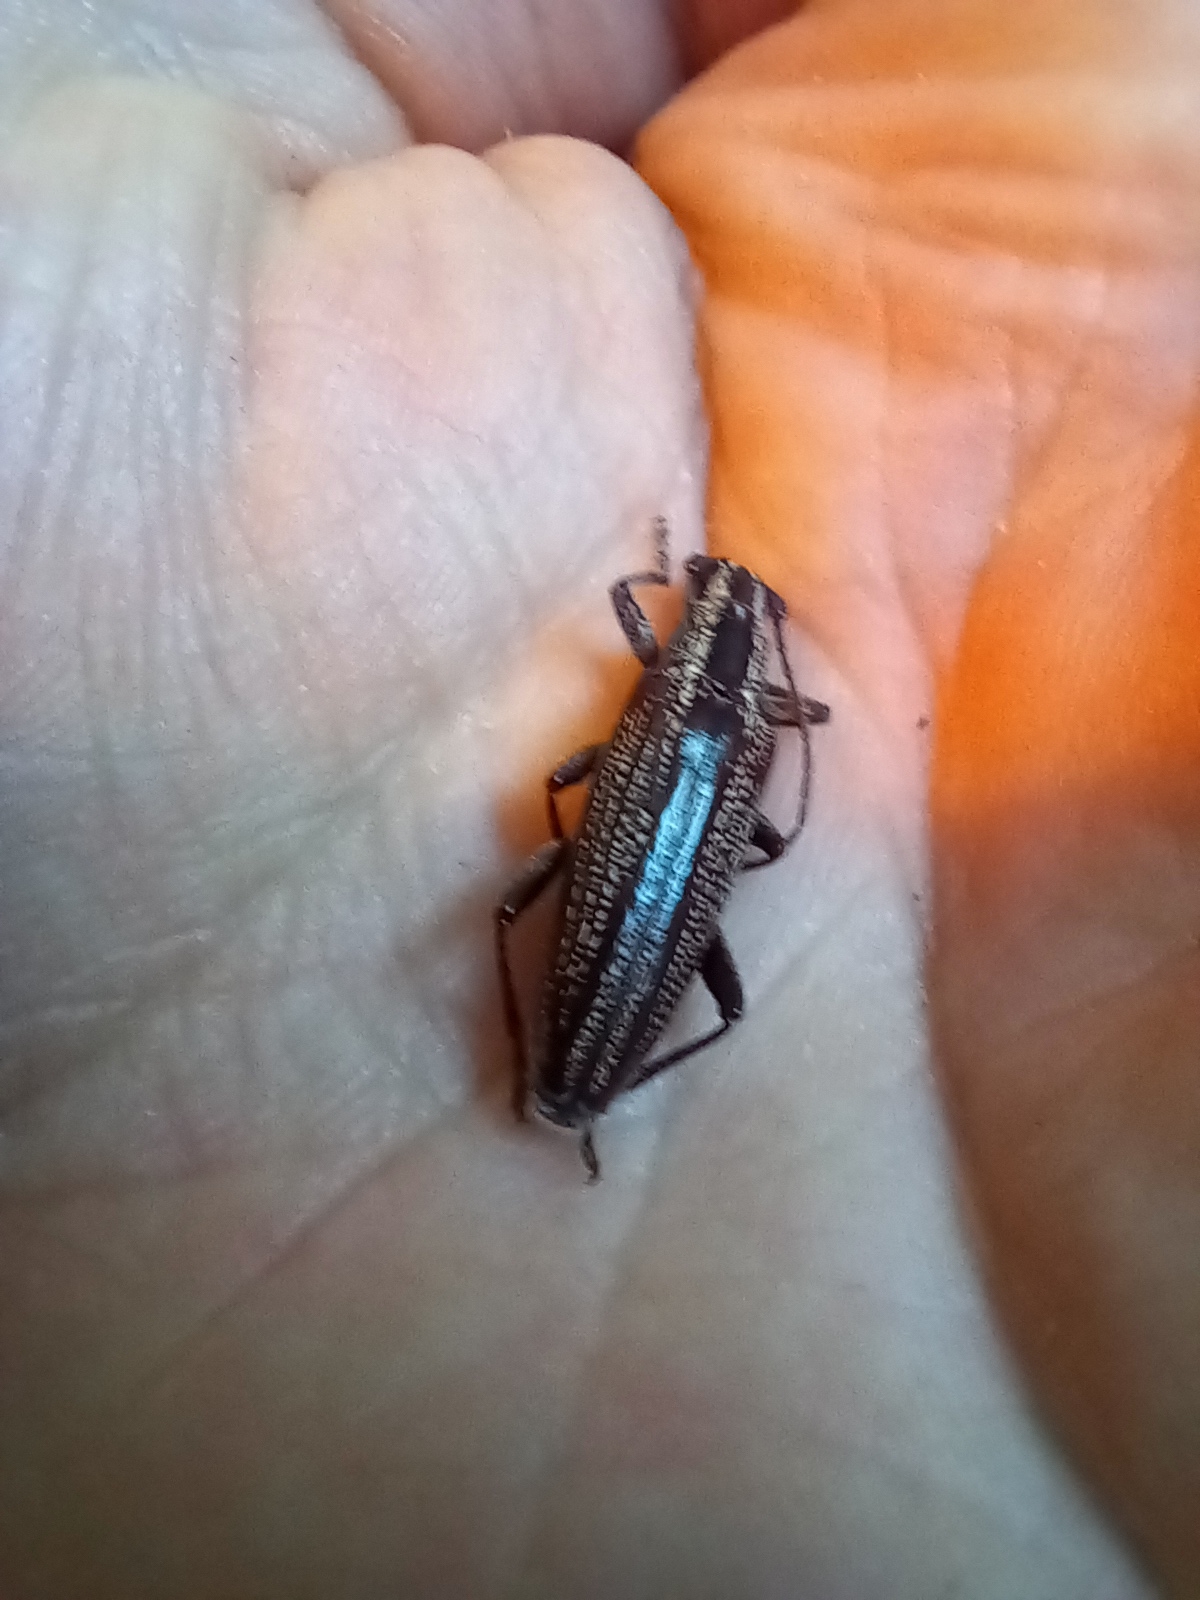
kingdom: Animalia
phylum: Arthropoda
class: Insecta
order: Coleoptera
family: Cerambycidae
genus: Coptomma
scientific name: Coptomma sticticum
